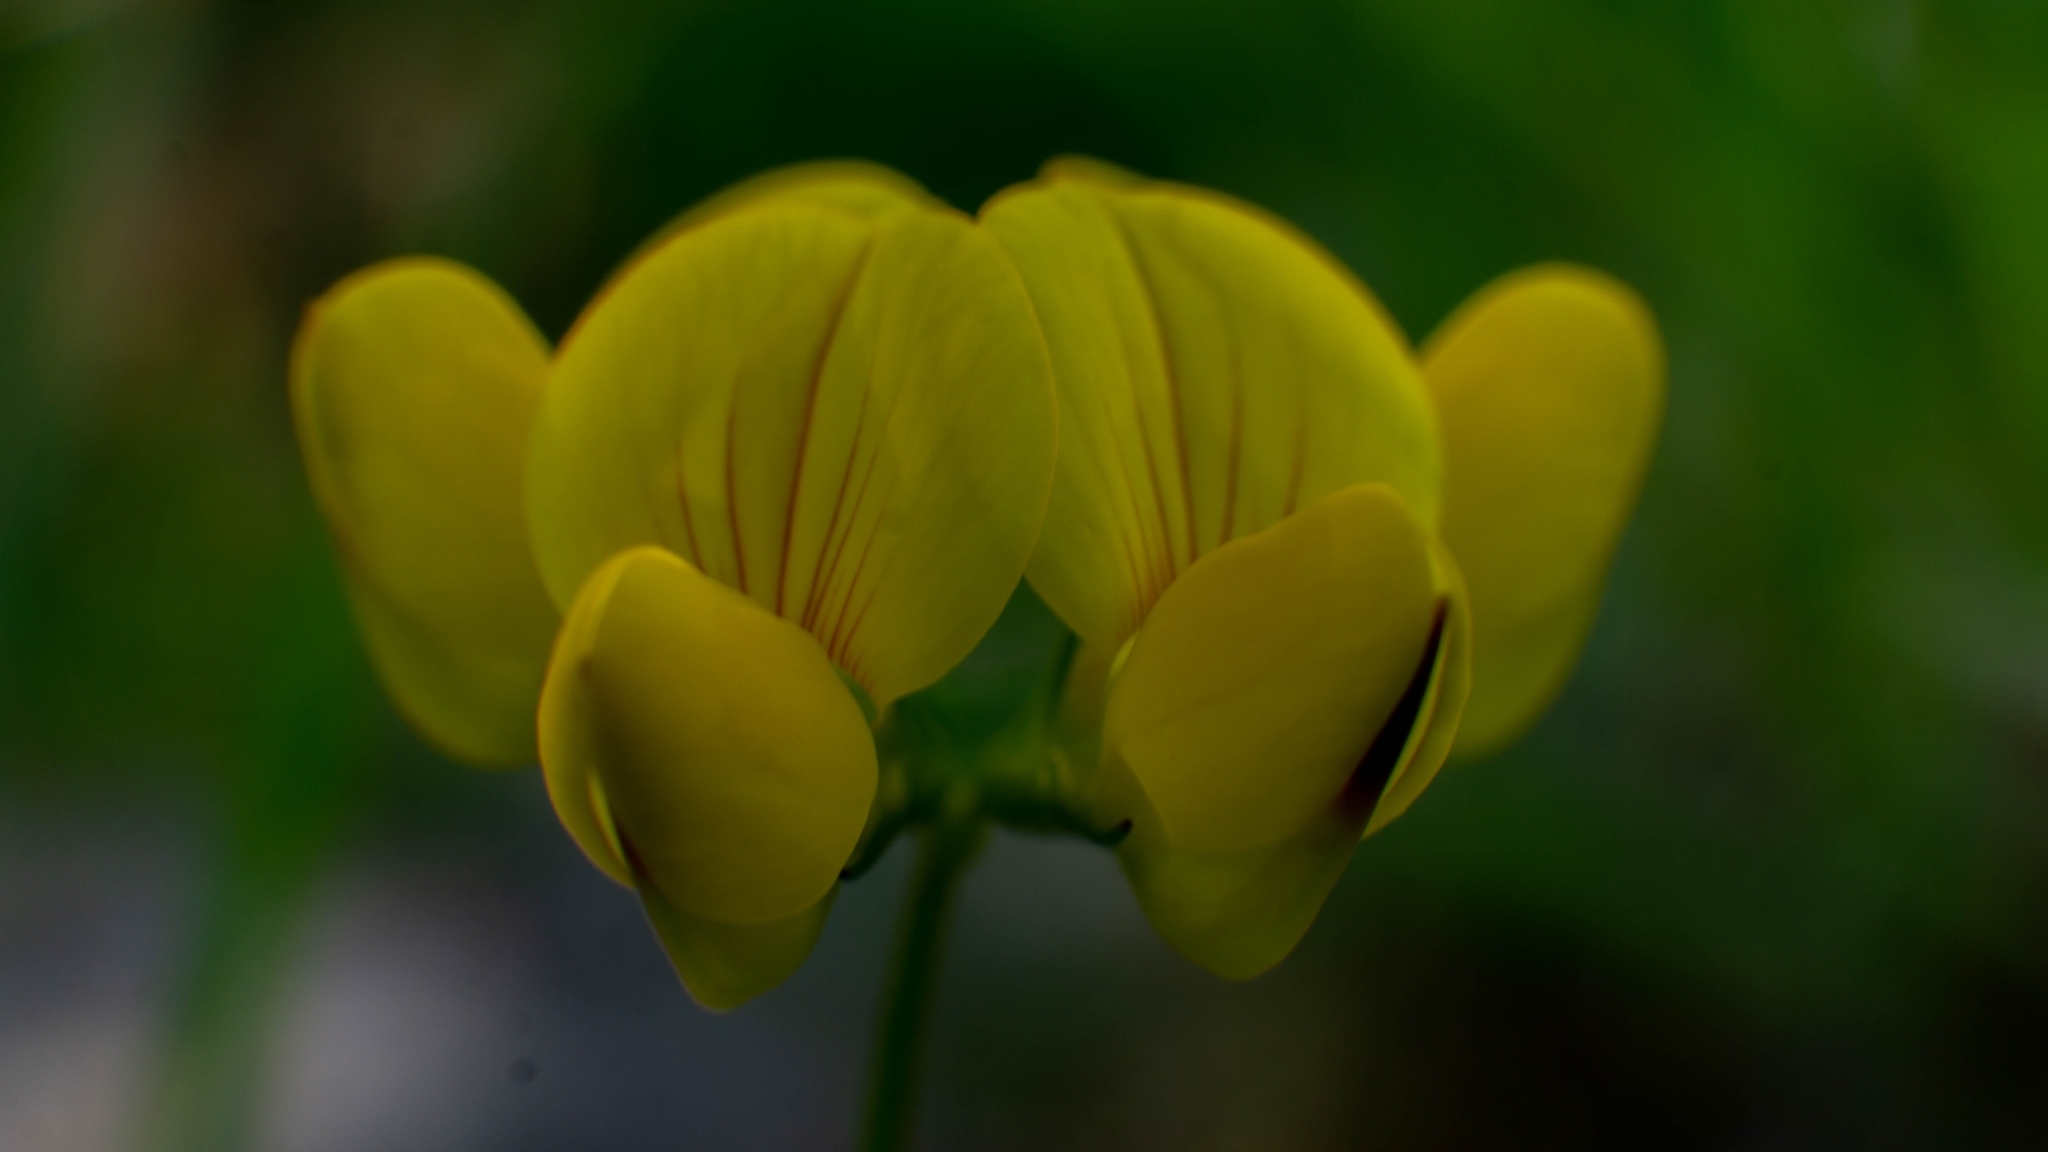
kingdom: Plantae
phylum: Tracheophyta
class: Magnoliopsida
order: Fabales
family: Fabaceae
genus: Lotus
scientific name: Lotus corniculatus
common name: Common bird's-foot-trefoil
